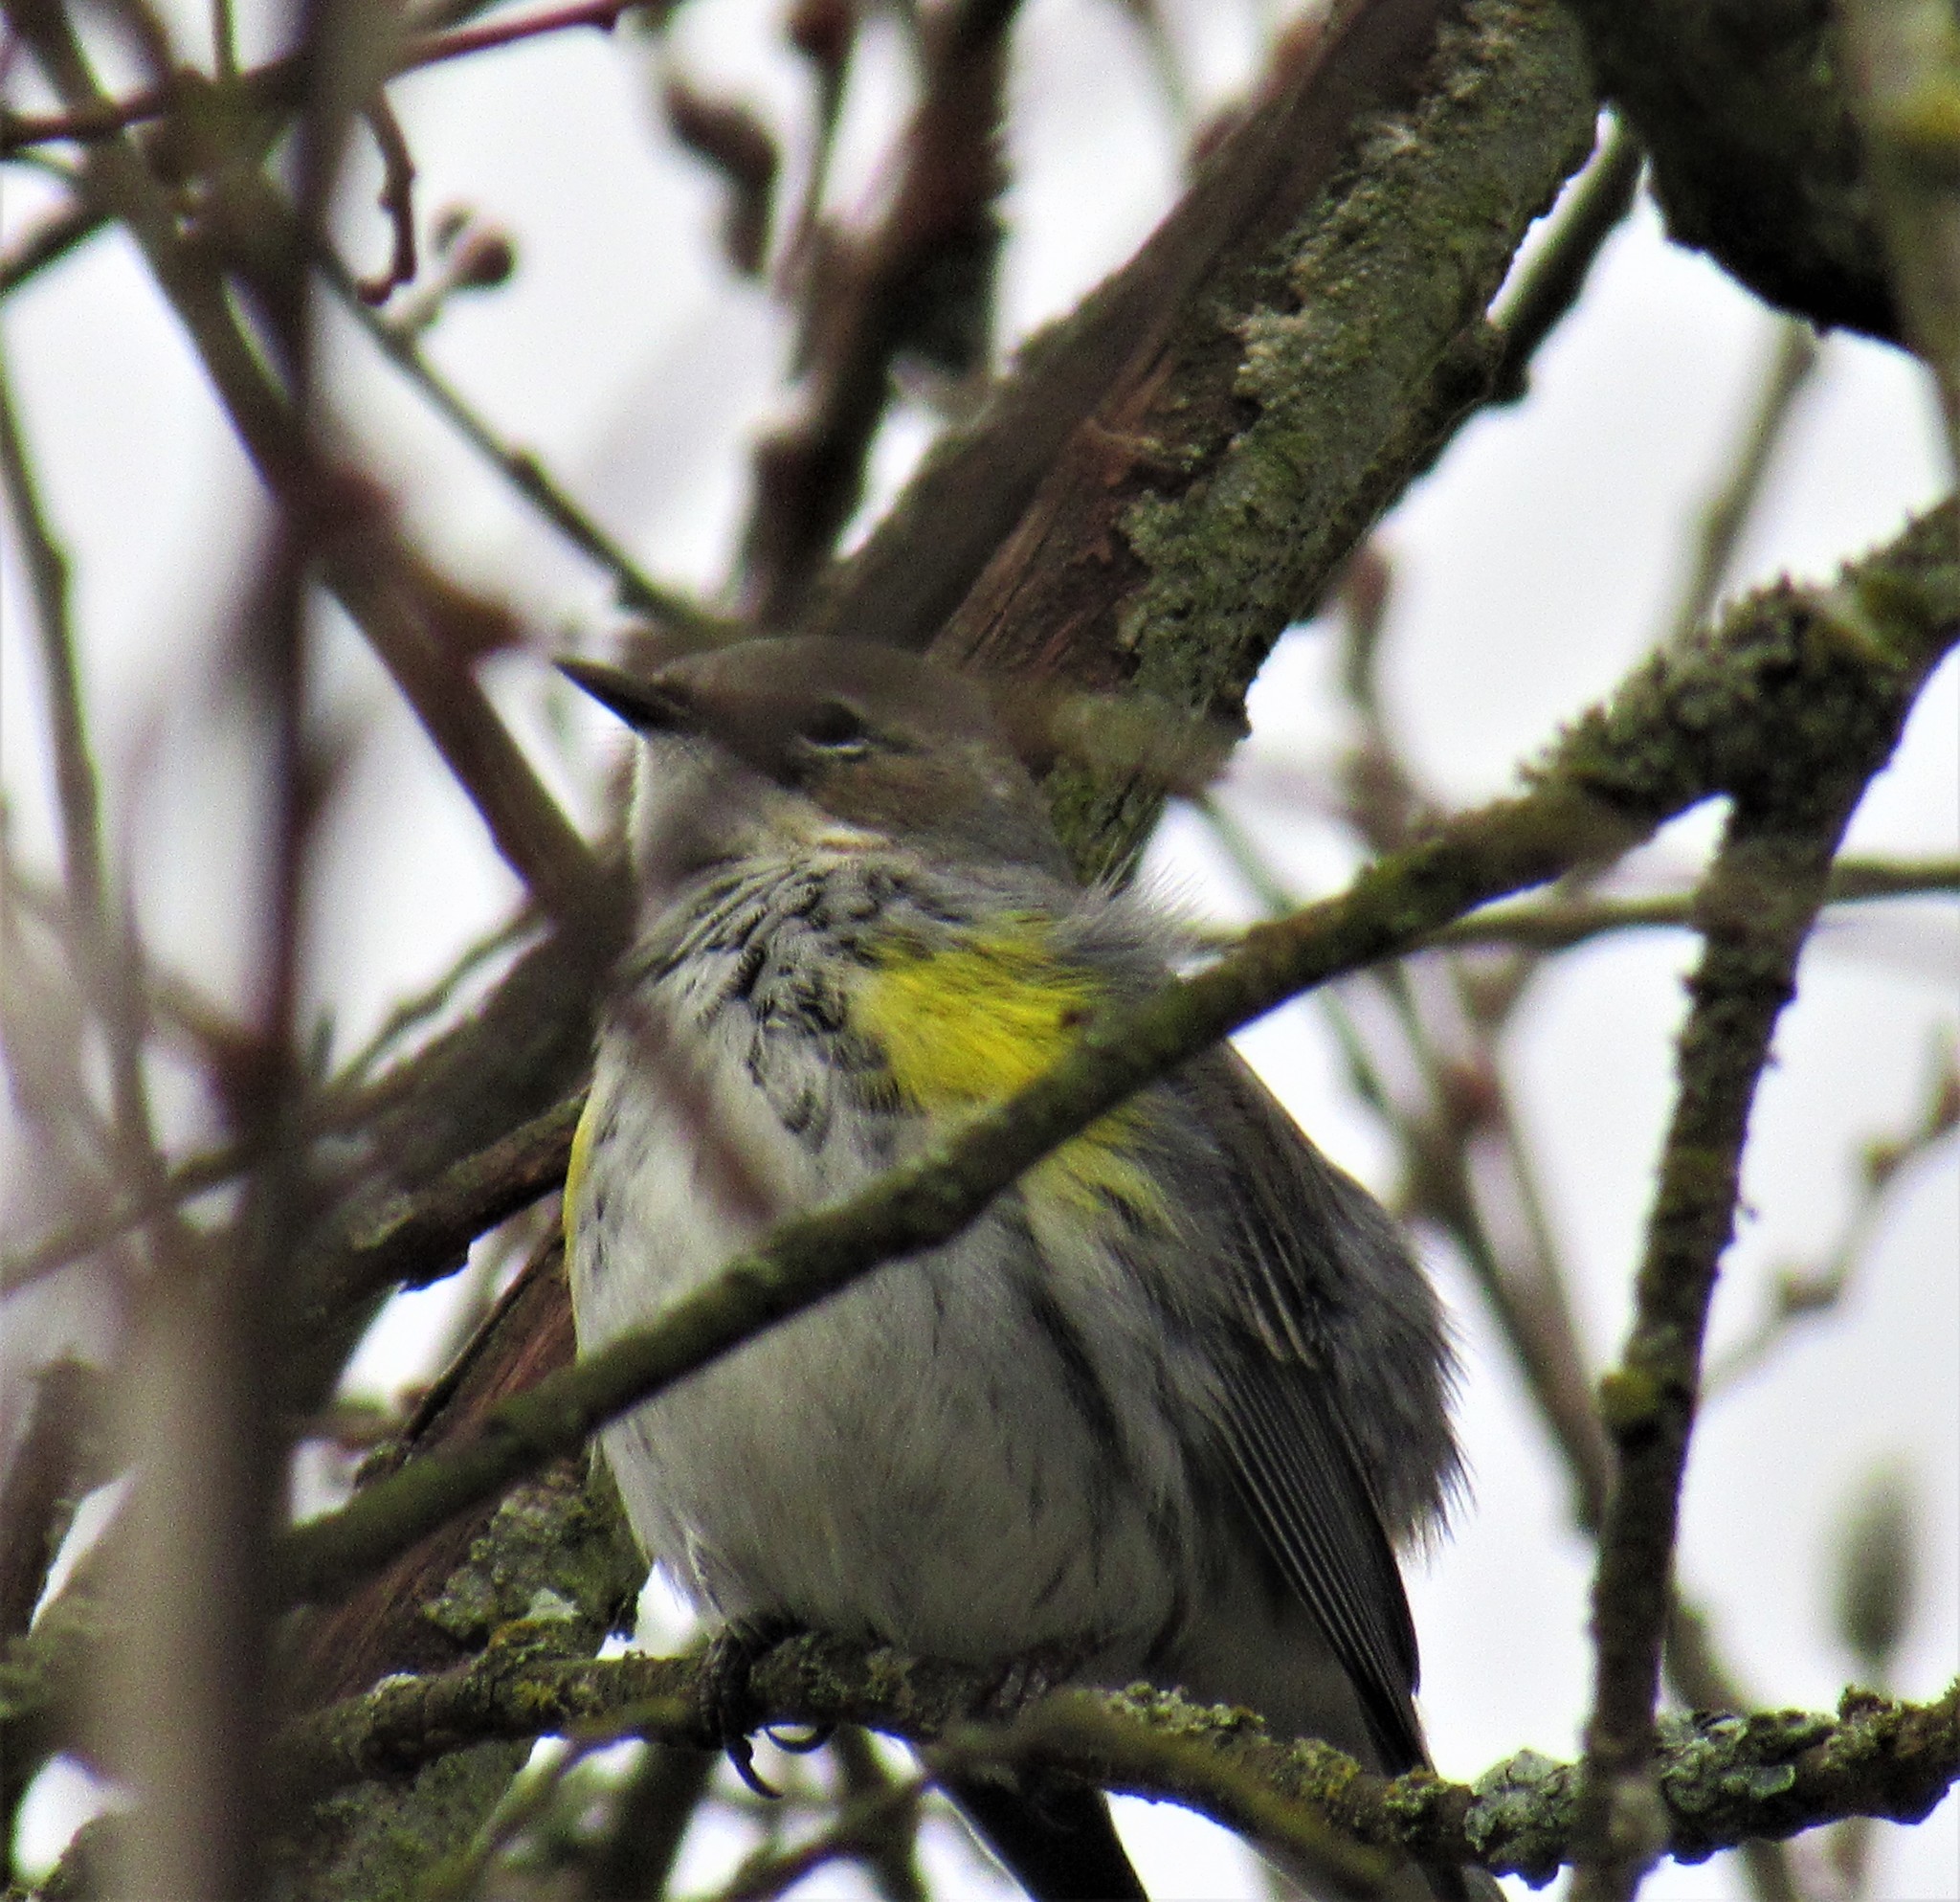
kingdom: Animalia
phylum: Chordata
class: Aves
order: Passeriformes
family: Parulidae
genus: Setophaga
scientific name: Setophaga coronata
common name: Myrtle warbler
